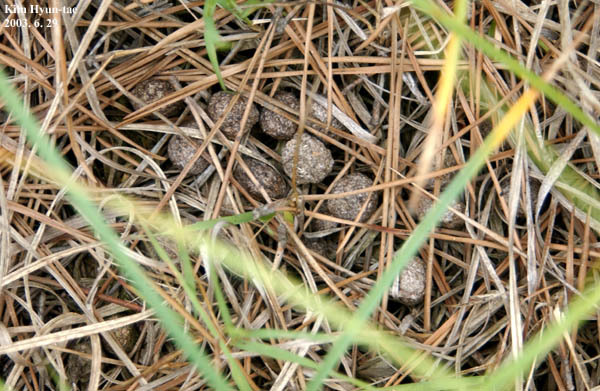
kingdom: Animalia
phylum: Chordata
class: Mammalia
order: Lagomorpha
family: Leporidae
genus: Lepus
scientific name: Lepus coreanus
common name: Korean hare
